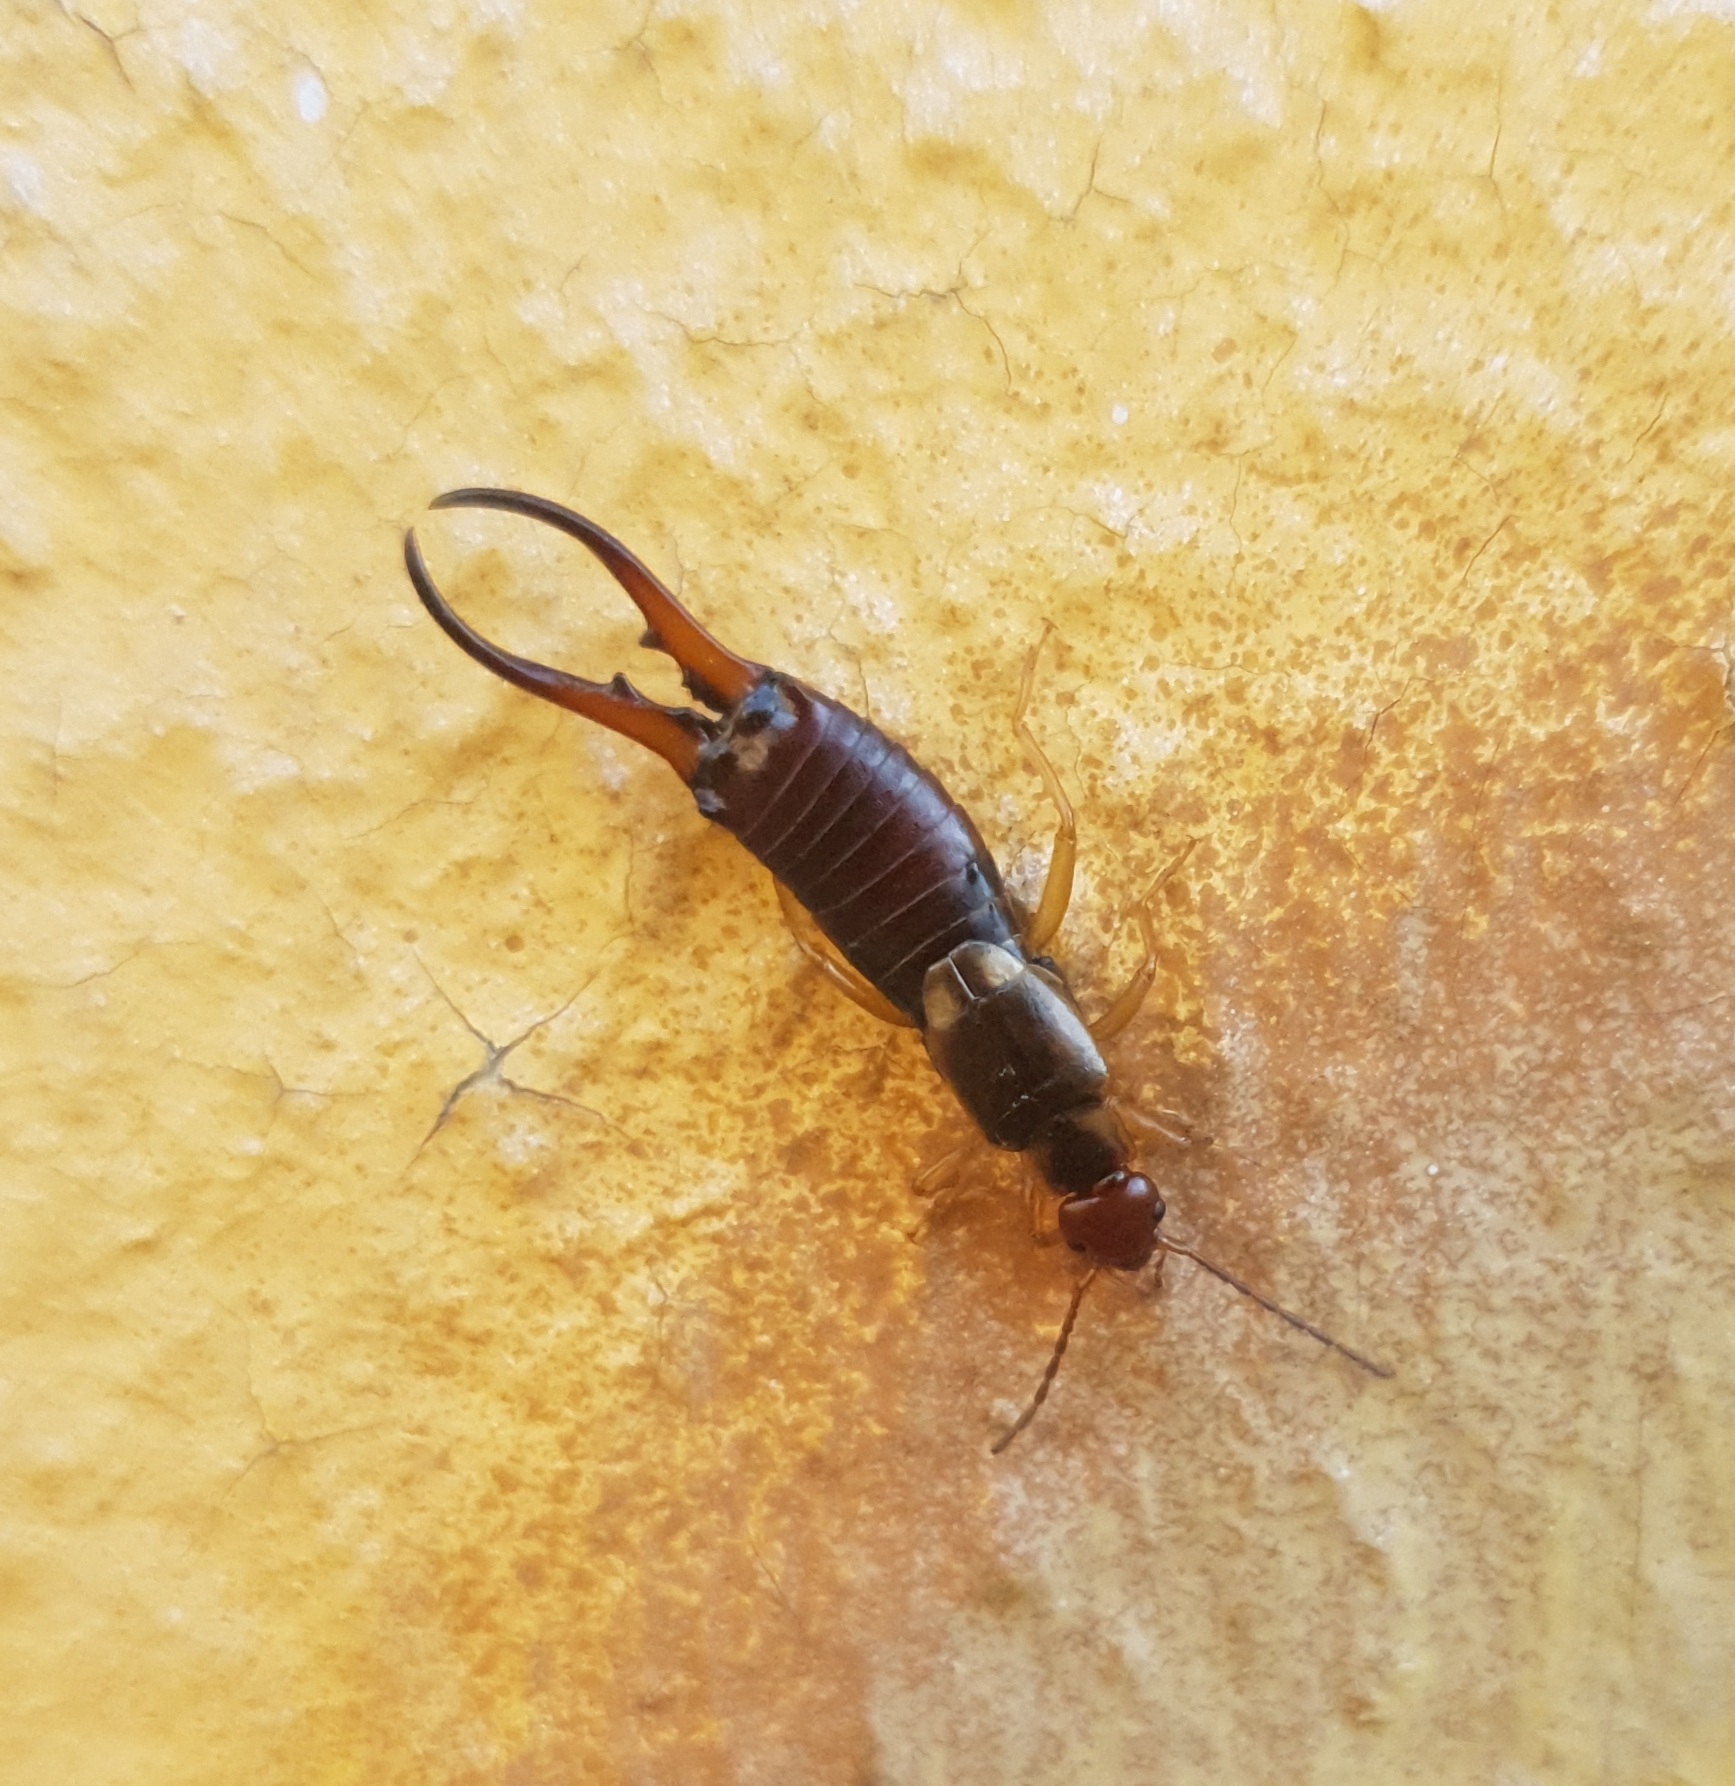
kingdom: Animalia
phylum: Arthropoda
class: Insecta
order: Dermaptera
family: Forficulidae
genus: Forficula
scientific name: Forficula
